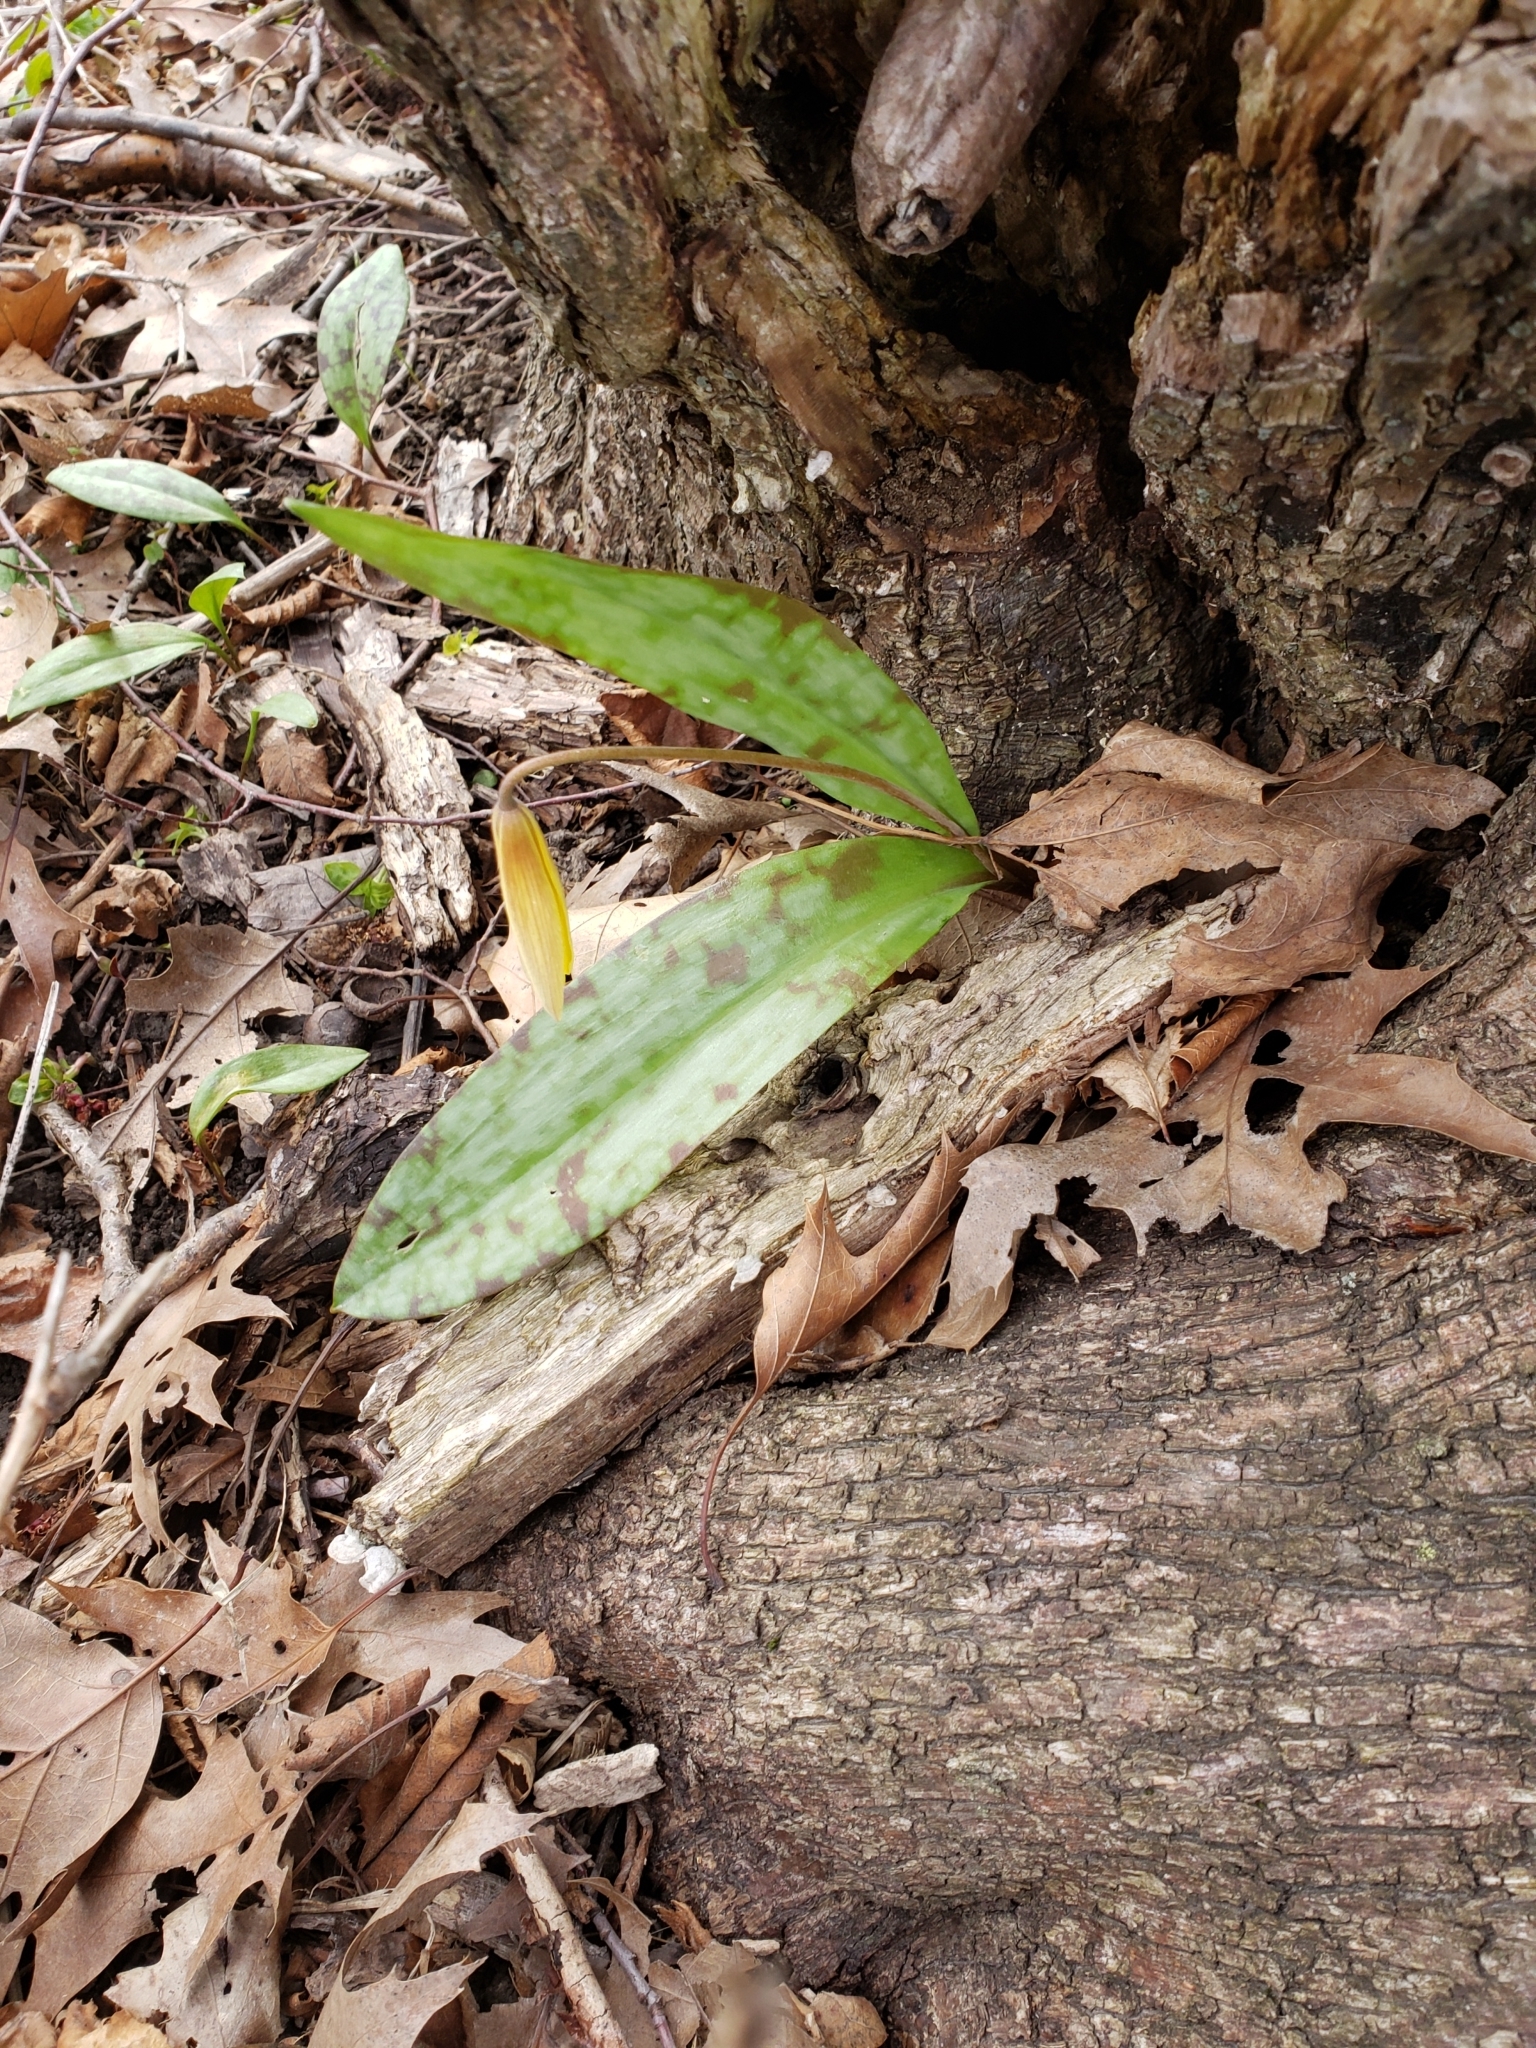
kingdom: Plantae
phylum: Tracheophyta
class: Liliopsida
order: Liliales
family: Liliaceae
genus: Erythronium
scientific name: Erythronium americanum
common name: Yellow adder's-tongue
